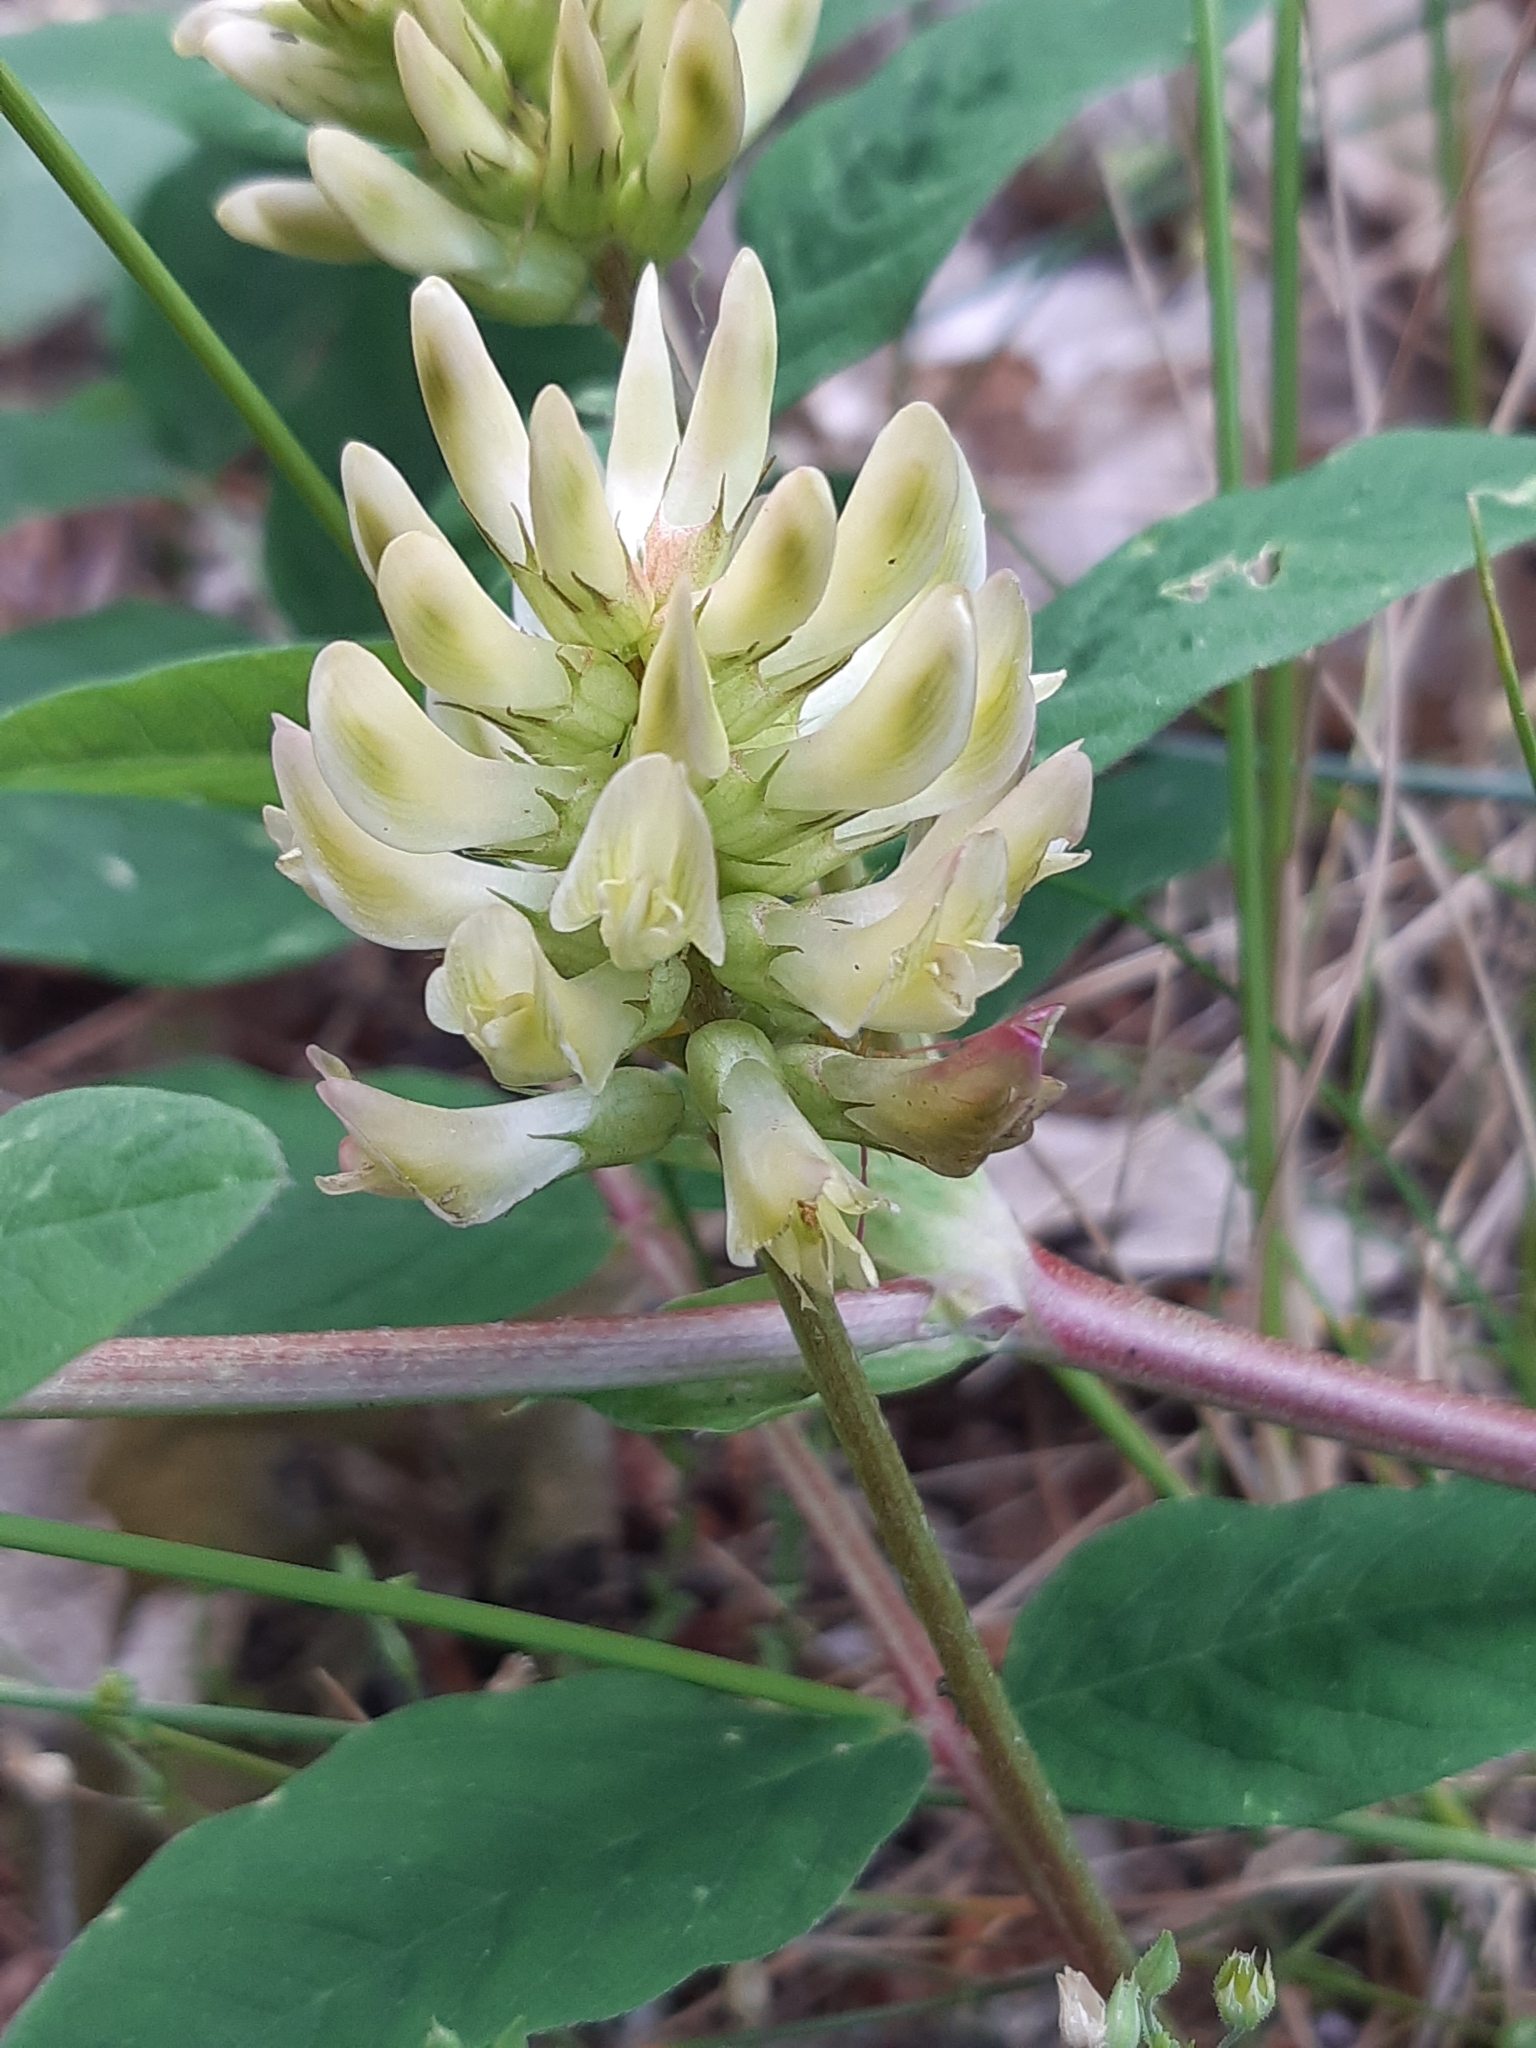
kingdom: Plantae
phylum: Tracheophyta
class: Magnoliopsida
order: Fabales
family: Fabaceae
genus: Astragalus
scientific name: Astragalus glycyphyllos
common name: Wild liquorice
